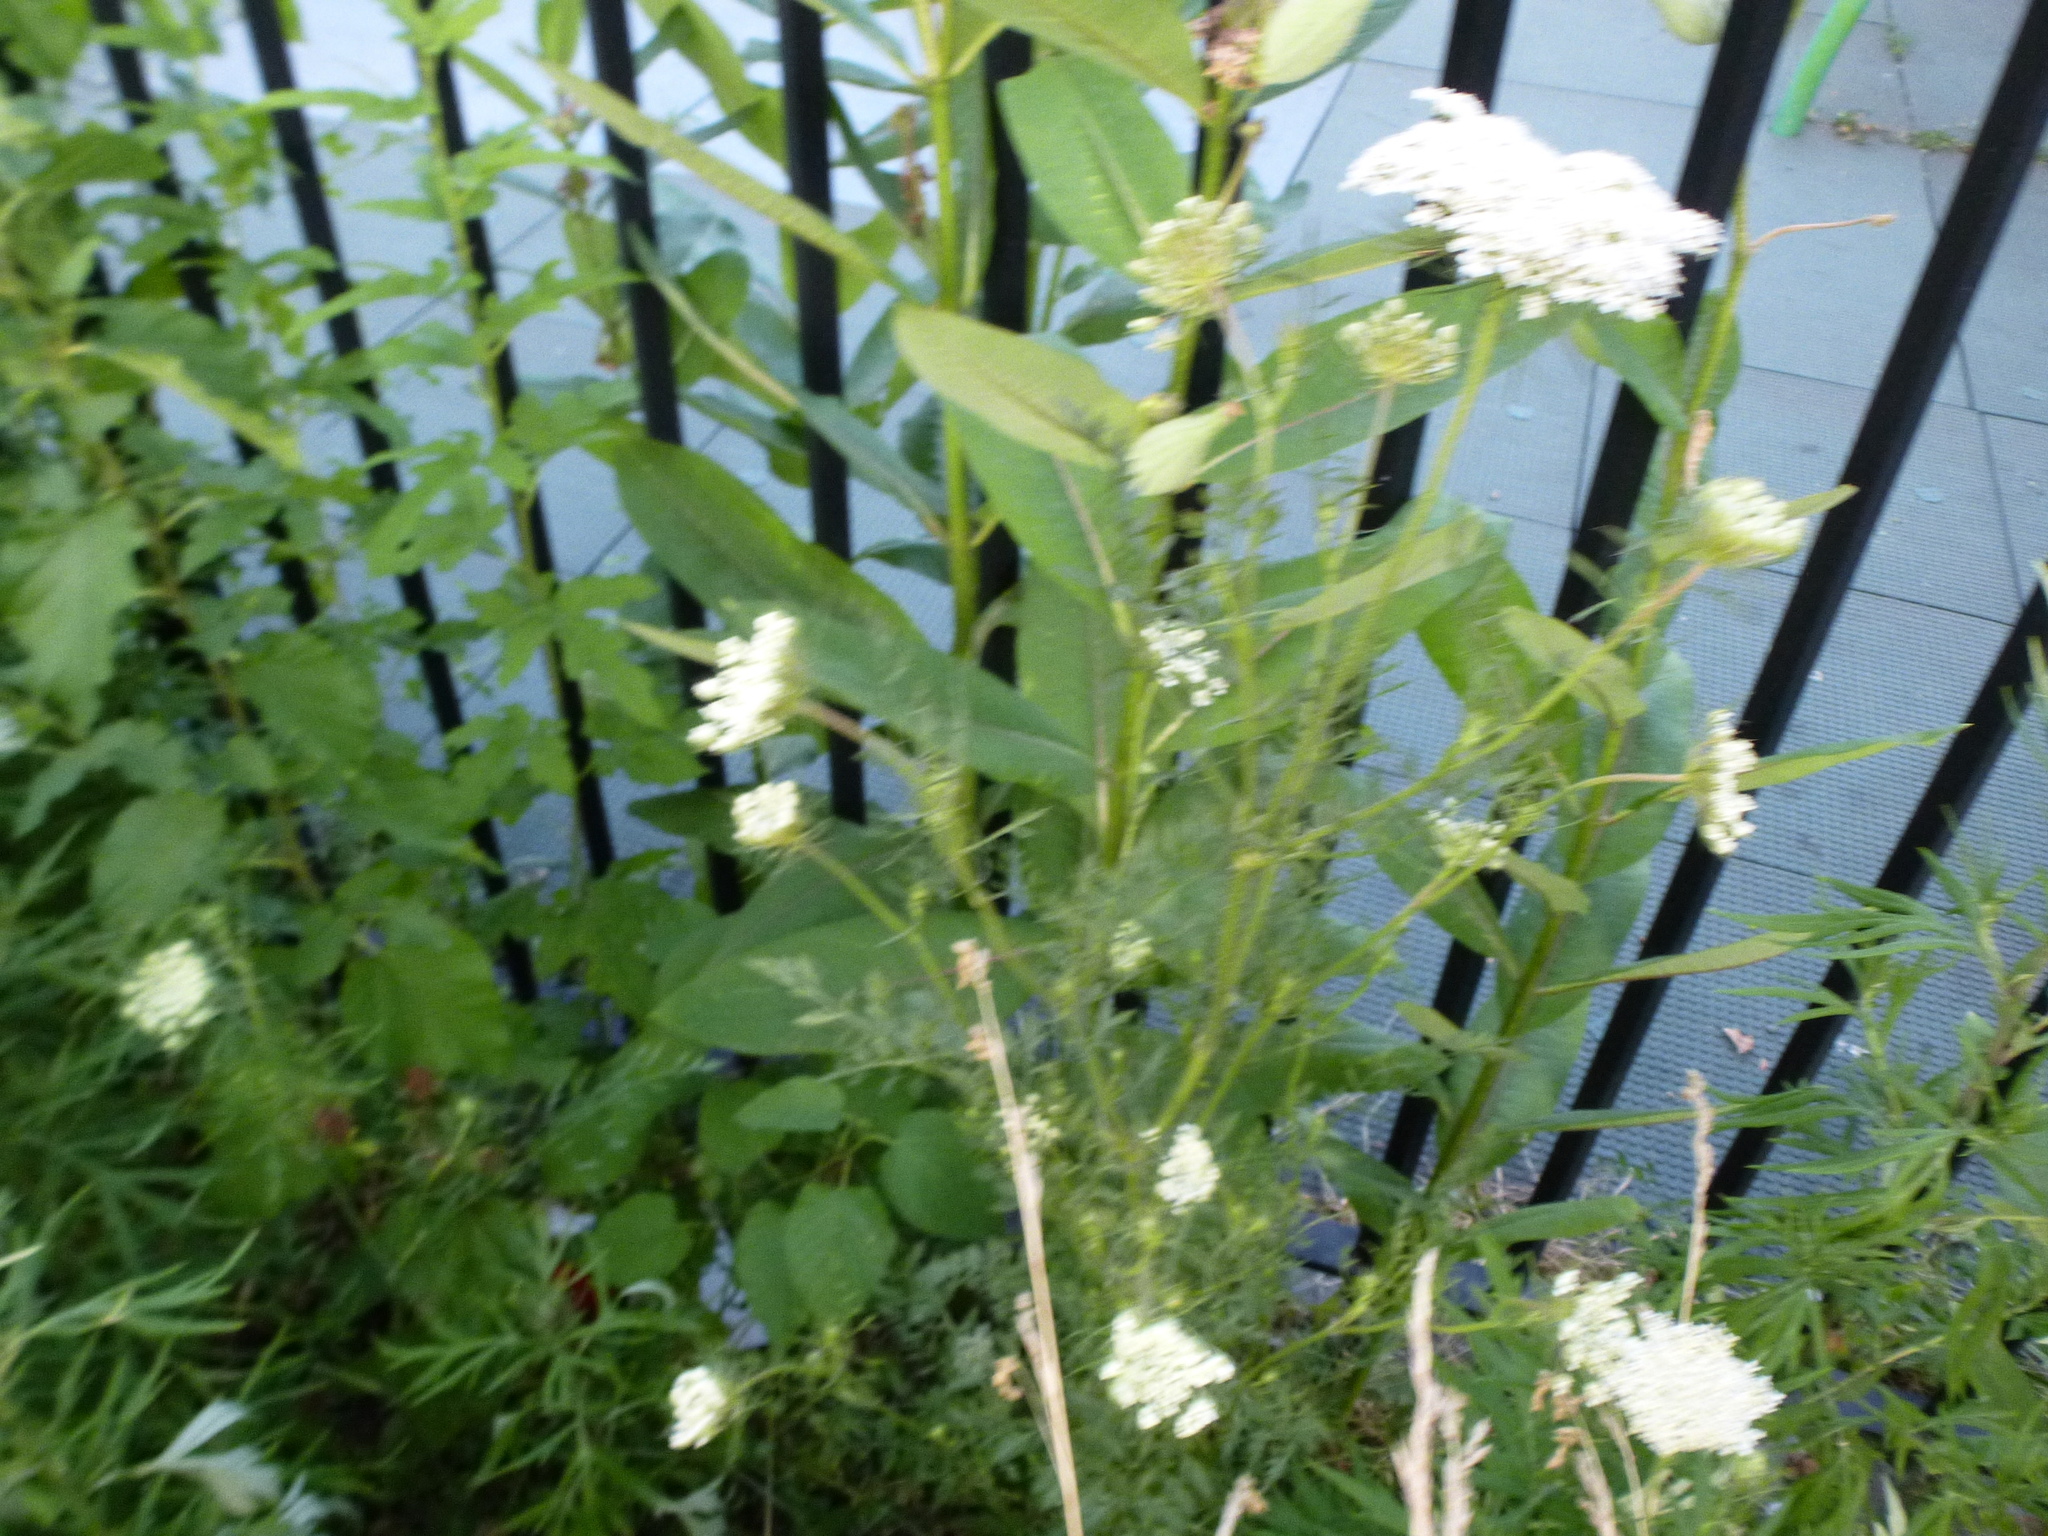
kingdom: Plantae
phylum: Tracheophyta
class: Magnoliopsida
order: Apiales
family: Apiaceae
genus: Daucus
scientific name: Daucus carota
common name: Wild carrot
